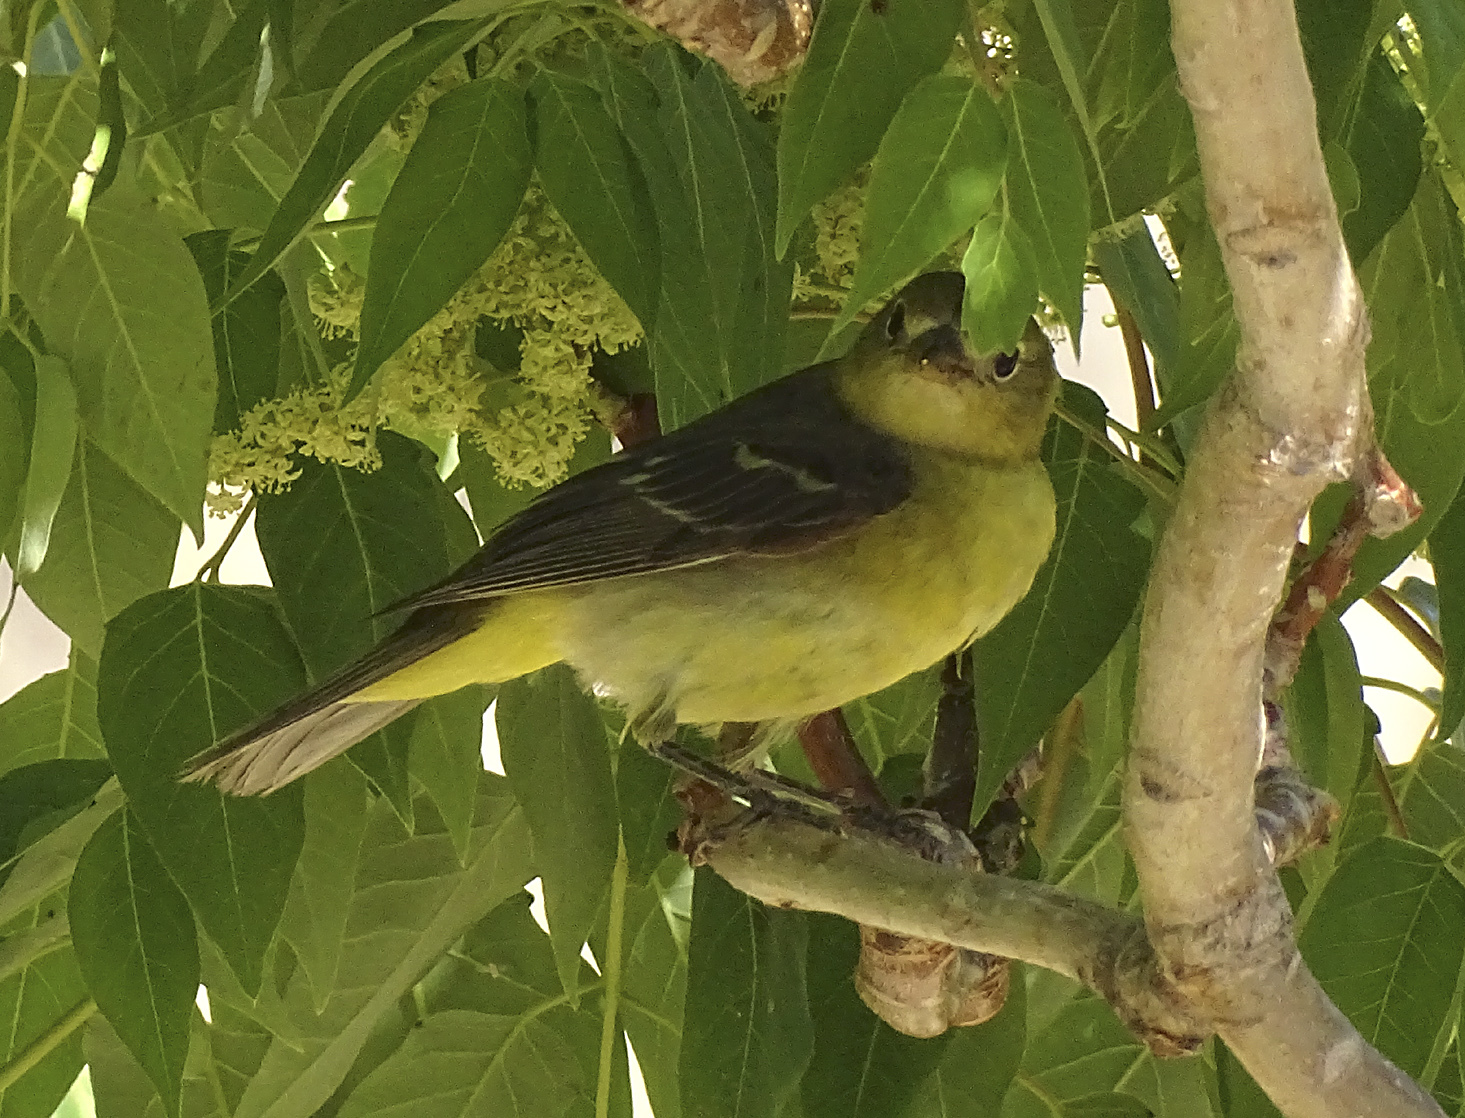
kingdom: Animalia
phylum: Chordata
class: Aves
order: Passeriformes
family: Cardinalidae
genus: Piranga
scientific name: Piranga ludoviciana
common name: Western tanager
